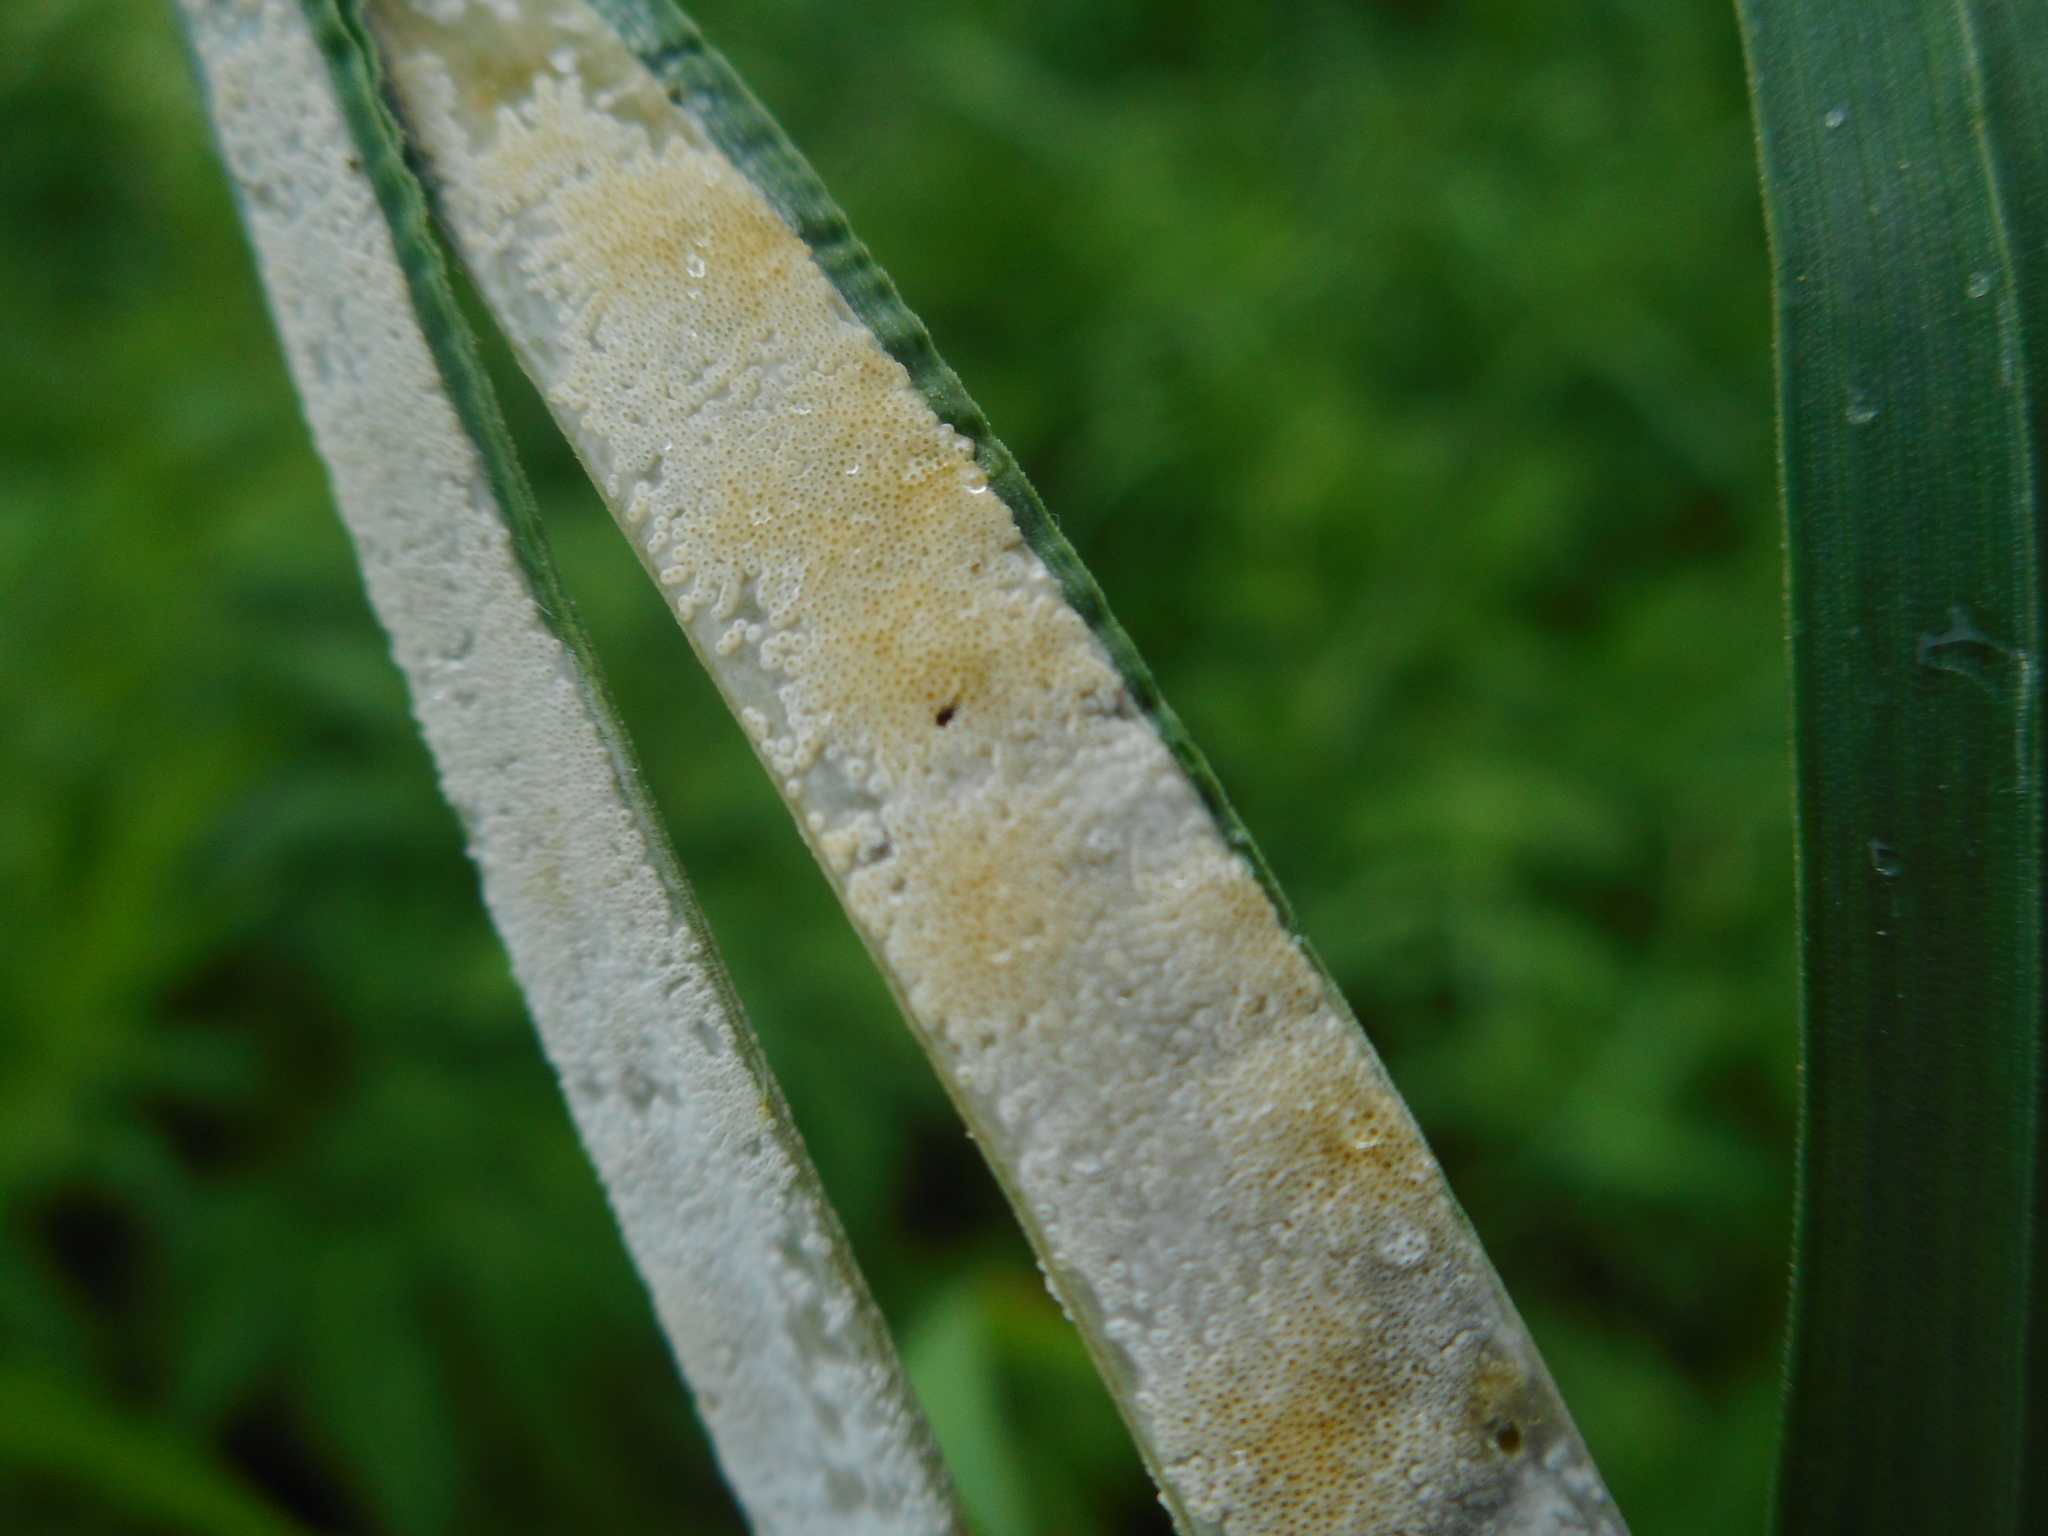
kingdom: Fungi
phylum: Ascomycota
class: Sordariomycetes
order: Hypocreales
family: Clavicipitaceae
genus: Epichloe
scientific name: Epichloe typhina
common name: Choke
